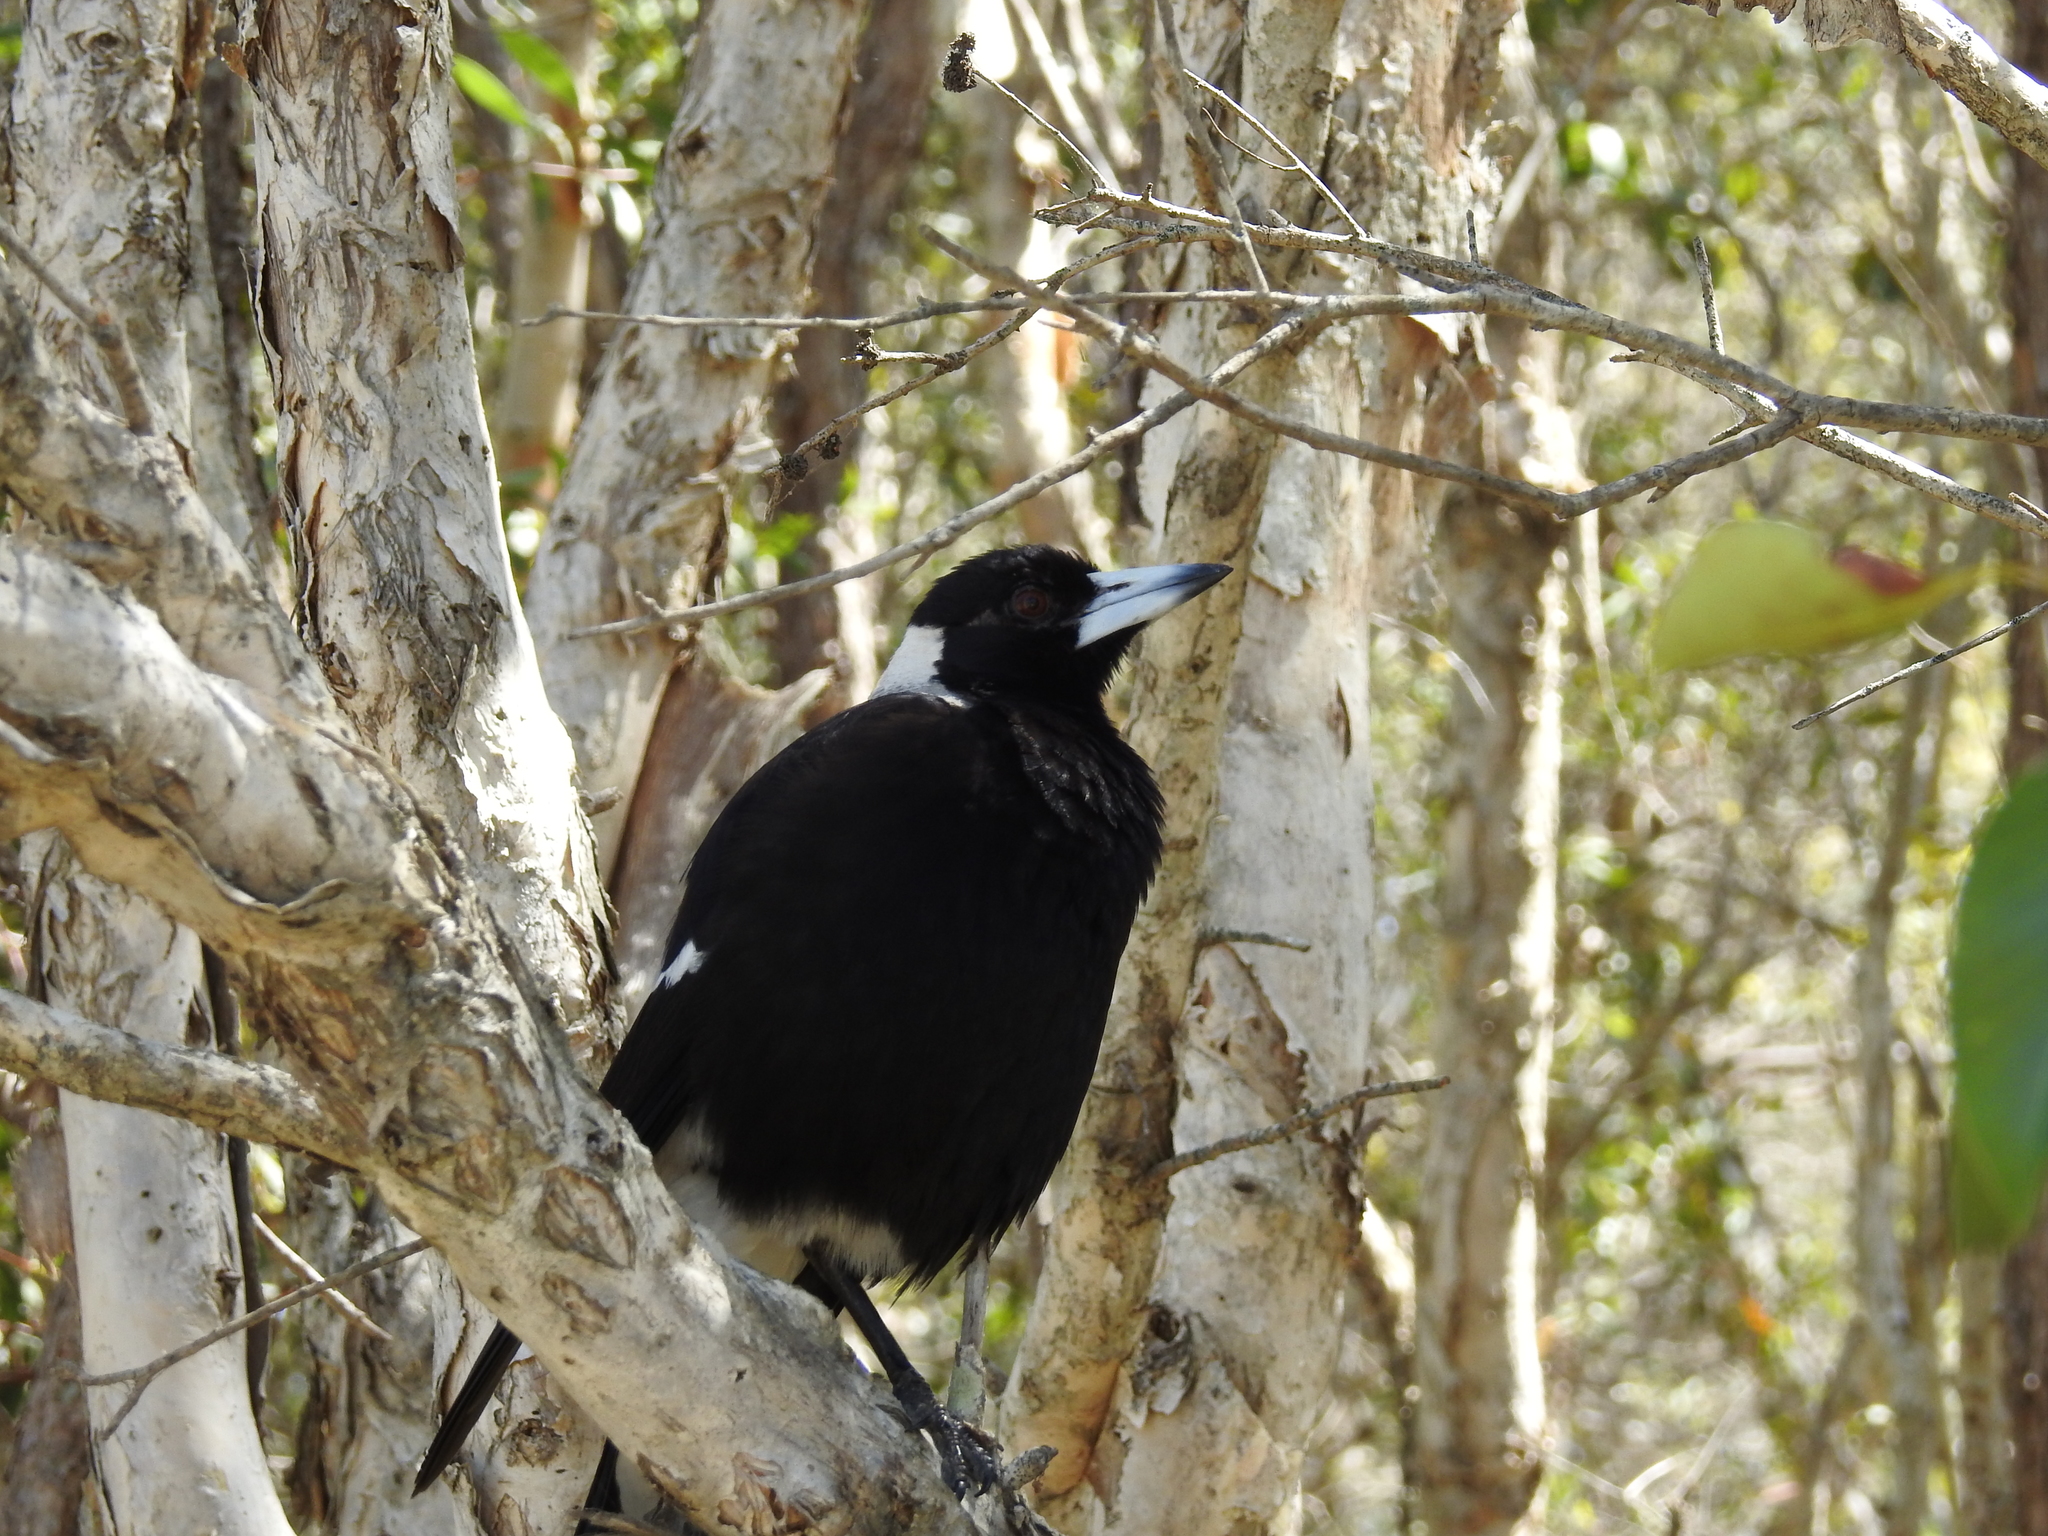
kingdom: Animalia
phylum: Chordata
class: Aves
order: Passeriformes
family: Cracticidae
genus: Gymnorhina
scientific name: Gymnorhina tibicen
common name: Australian magpie
